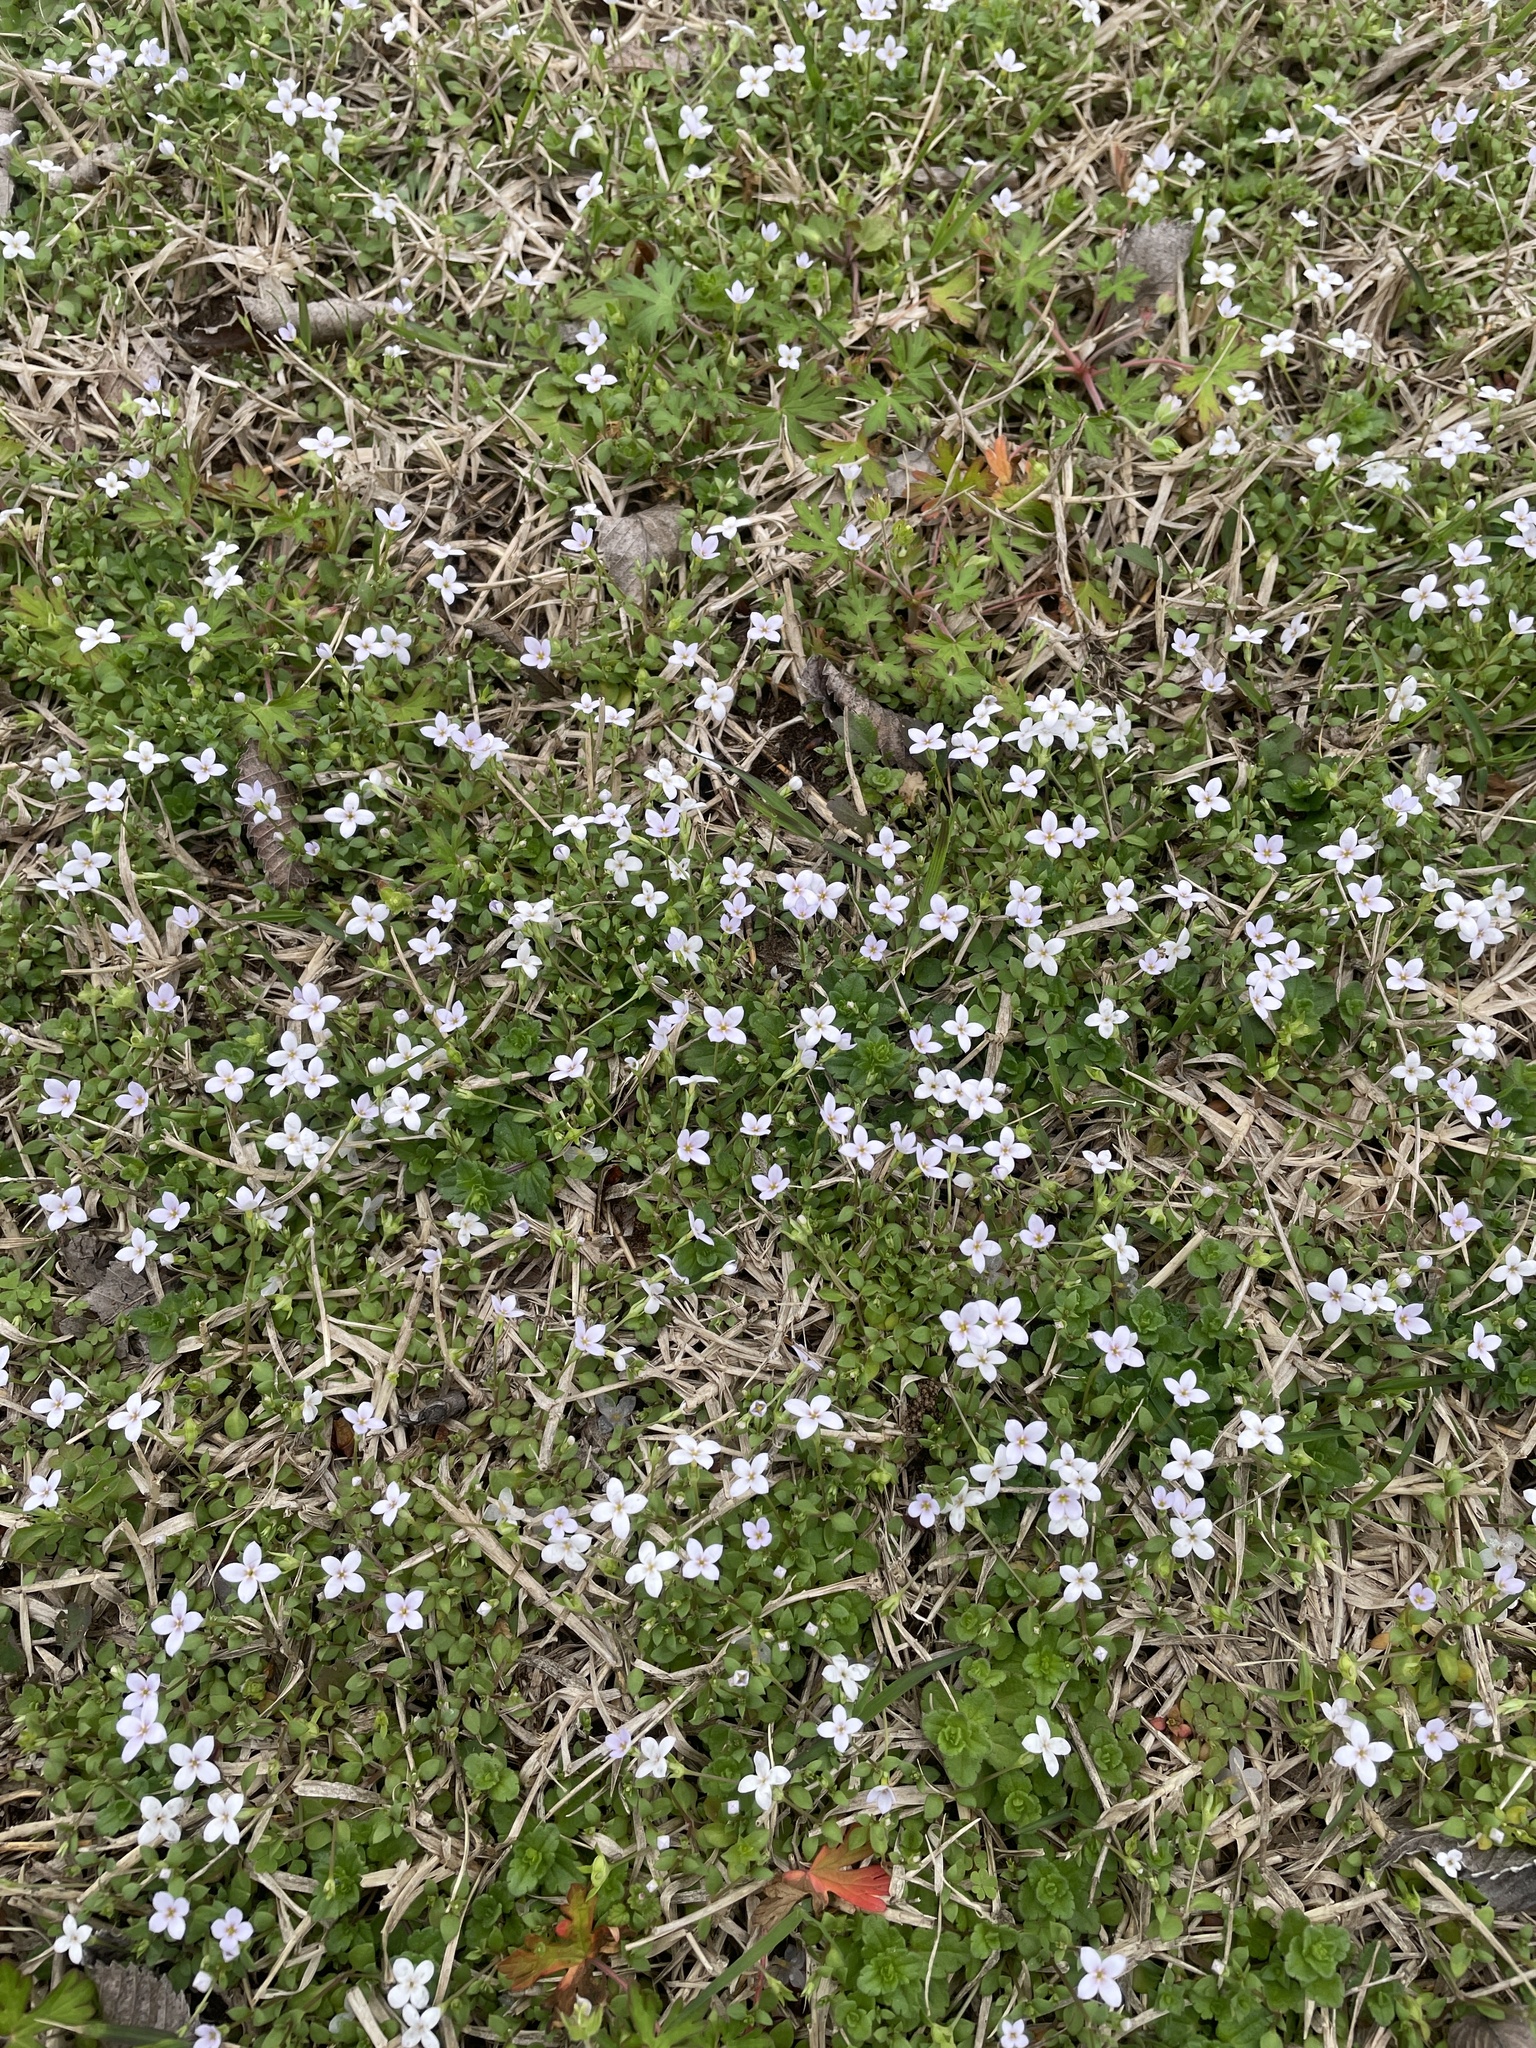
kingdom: Plantae
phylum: Tracheophyta
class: Magnoliopsida
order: Gentianales
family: Rubiaceae
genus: Houstonia
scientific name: Houstonia pusilla
